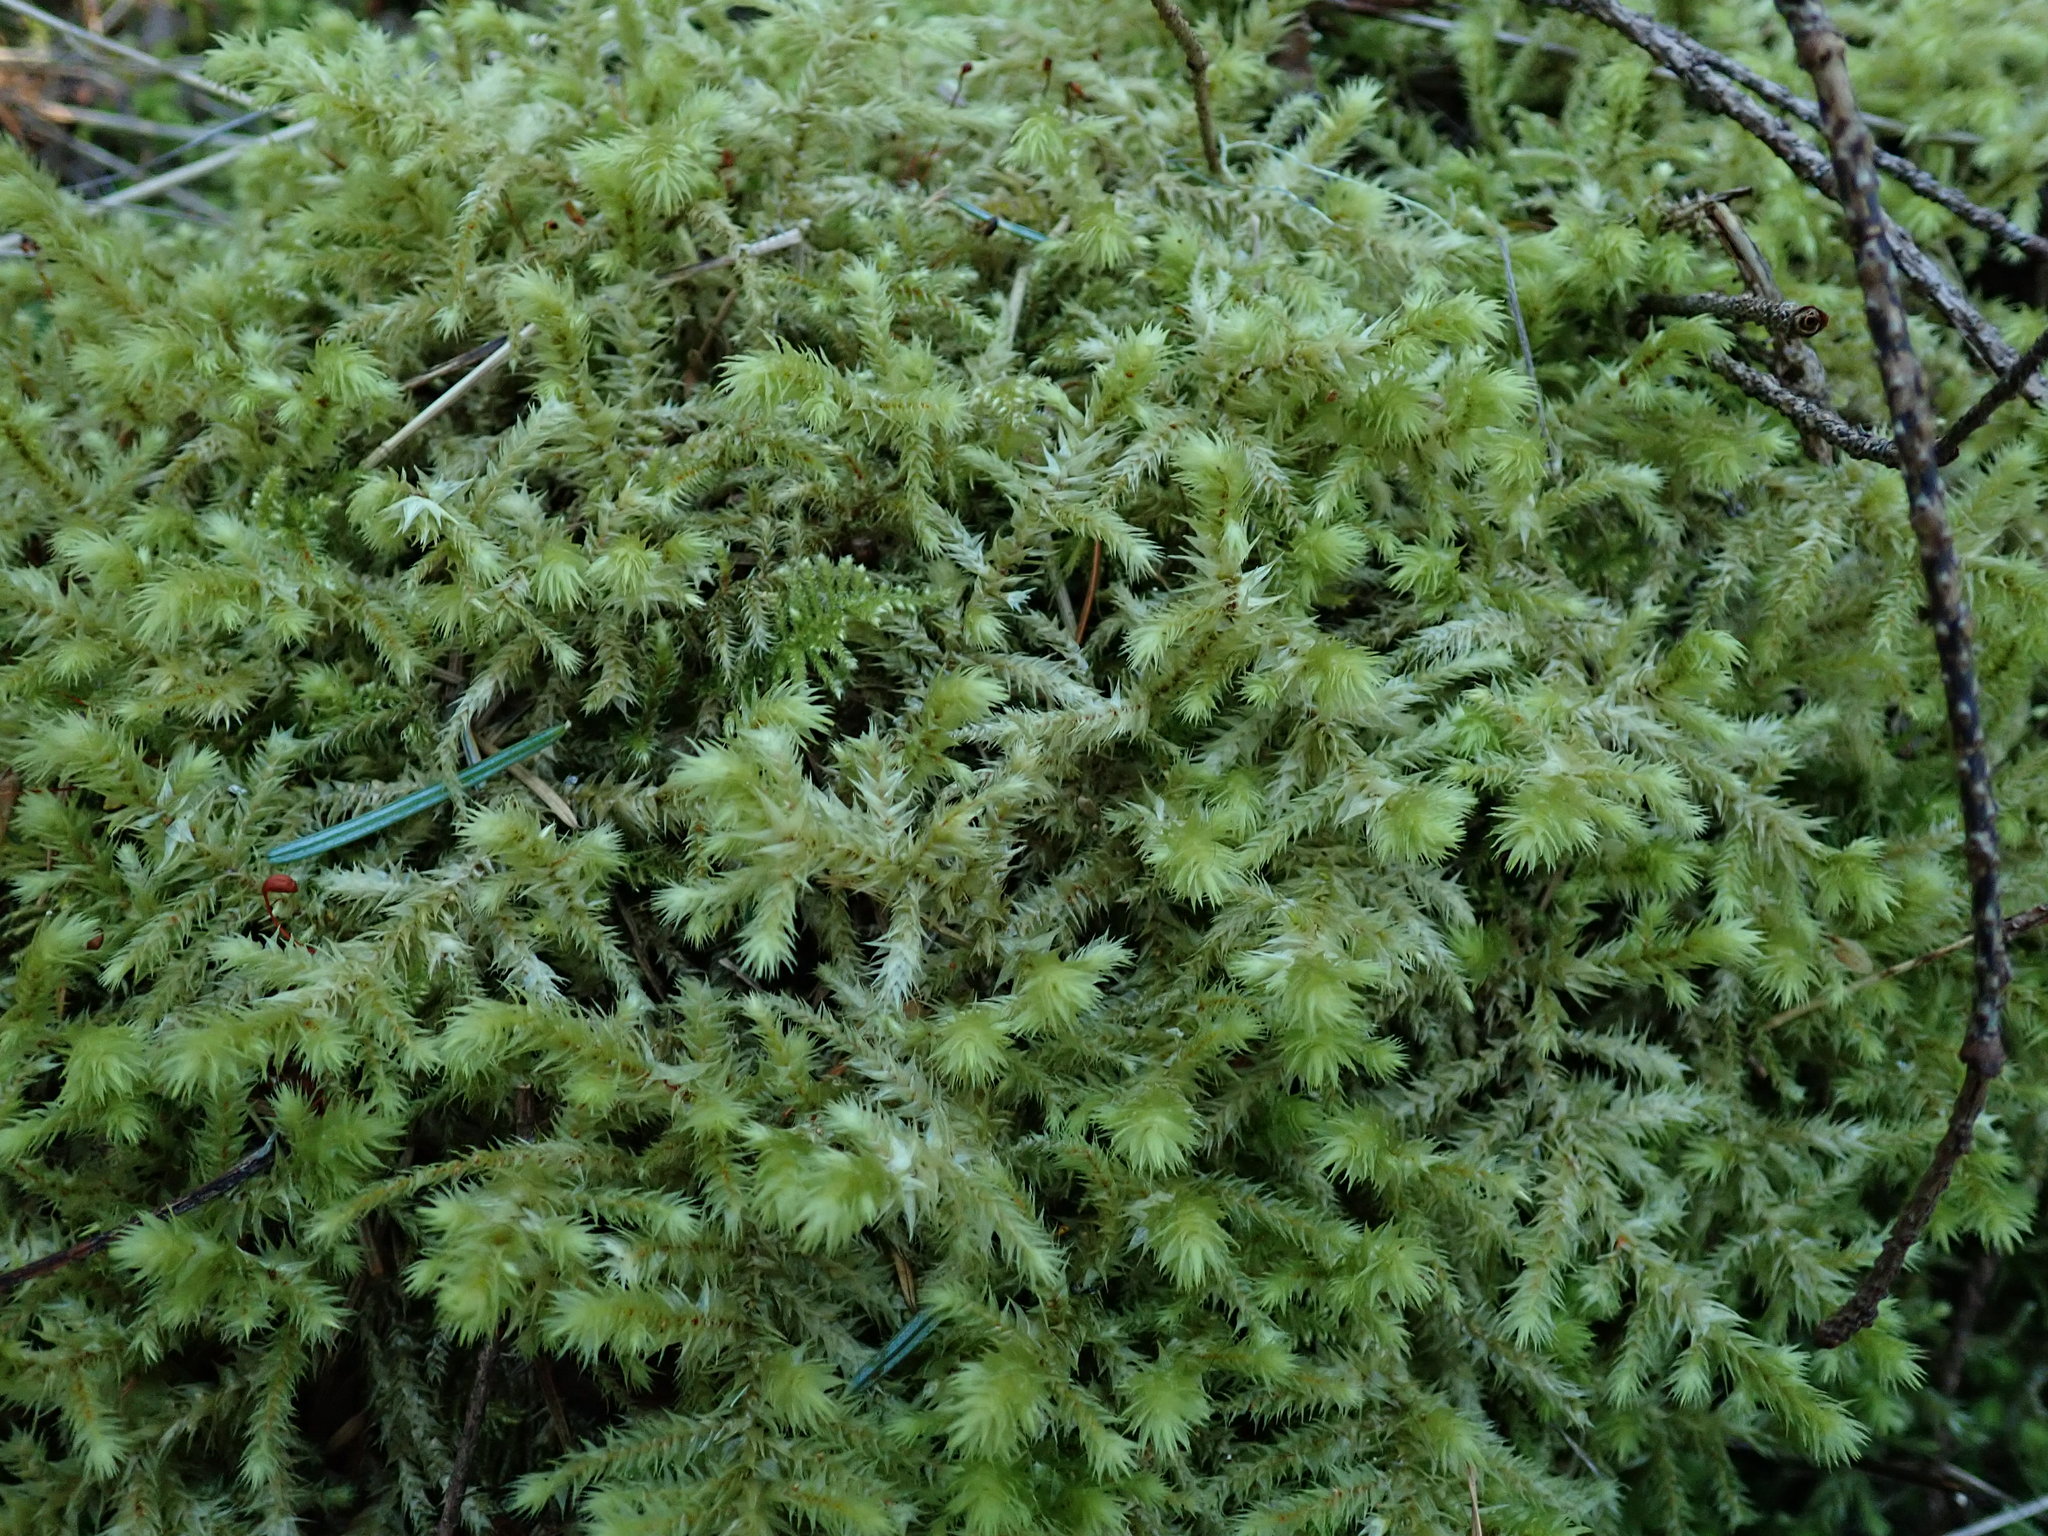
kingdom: Plantae
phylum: Bryophyta
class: Bryopsida
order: Hypnales
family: Hylocomiaceae
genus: Hylocomiadelphus
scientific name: Hylocomiadelphus triquetrus
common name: Rough goose neck moss
